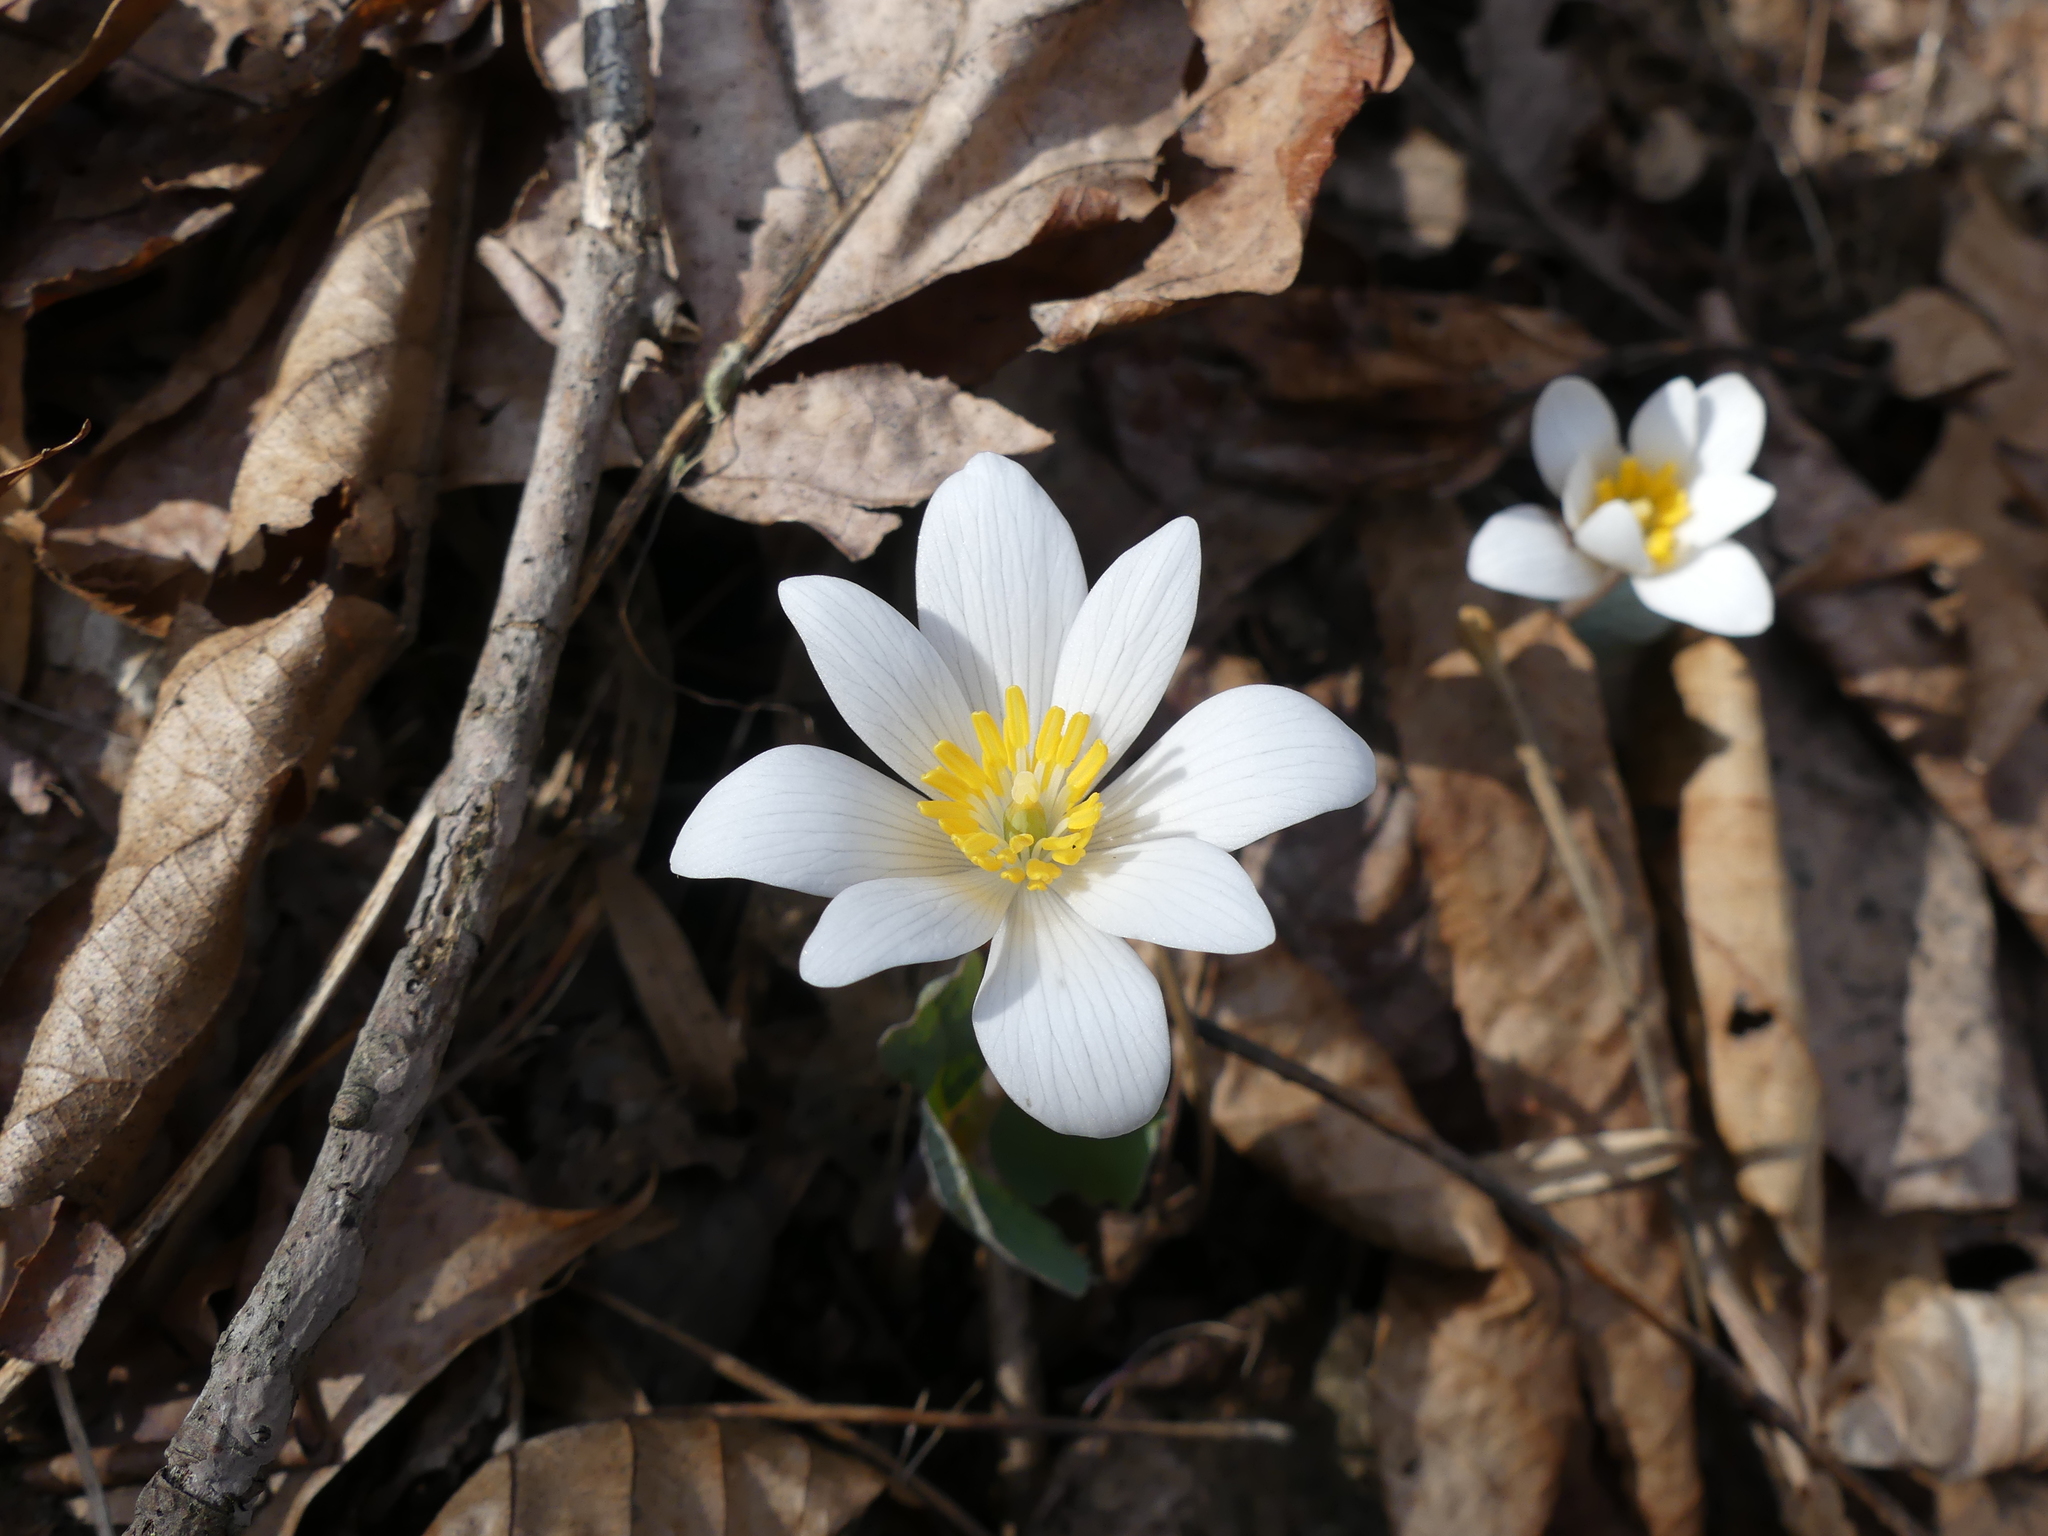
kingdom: Plantae
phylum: Tracheophyta
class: Magnoliopsida
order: Ranunculales
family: Papaveraceae
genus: Sanguinaria
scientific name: Sanguinaria canadensis
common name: Bloodroot
